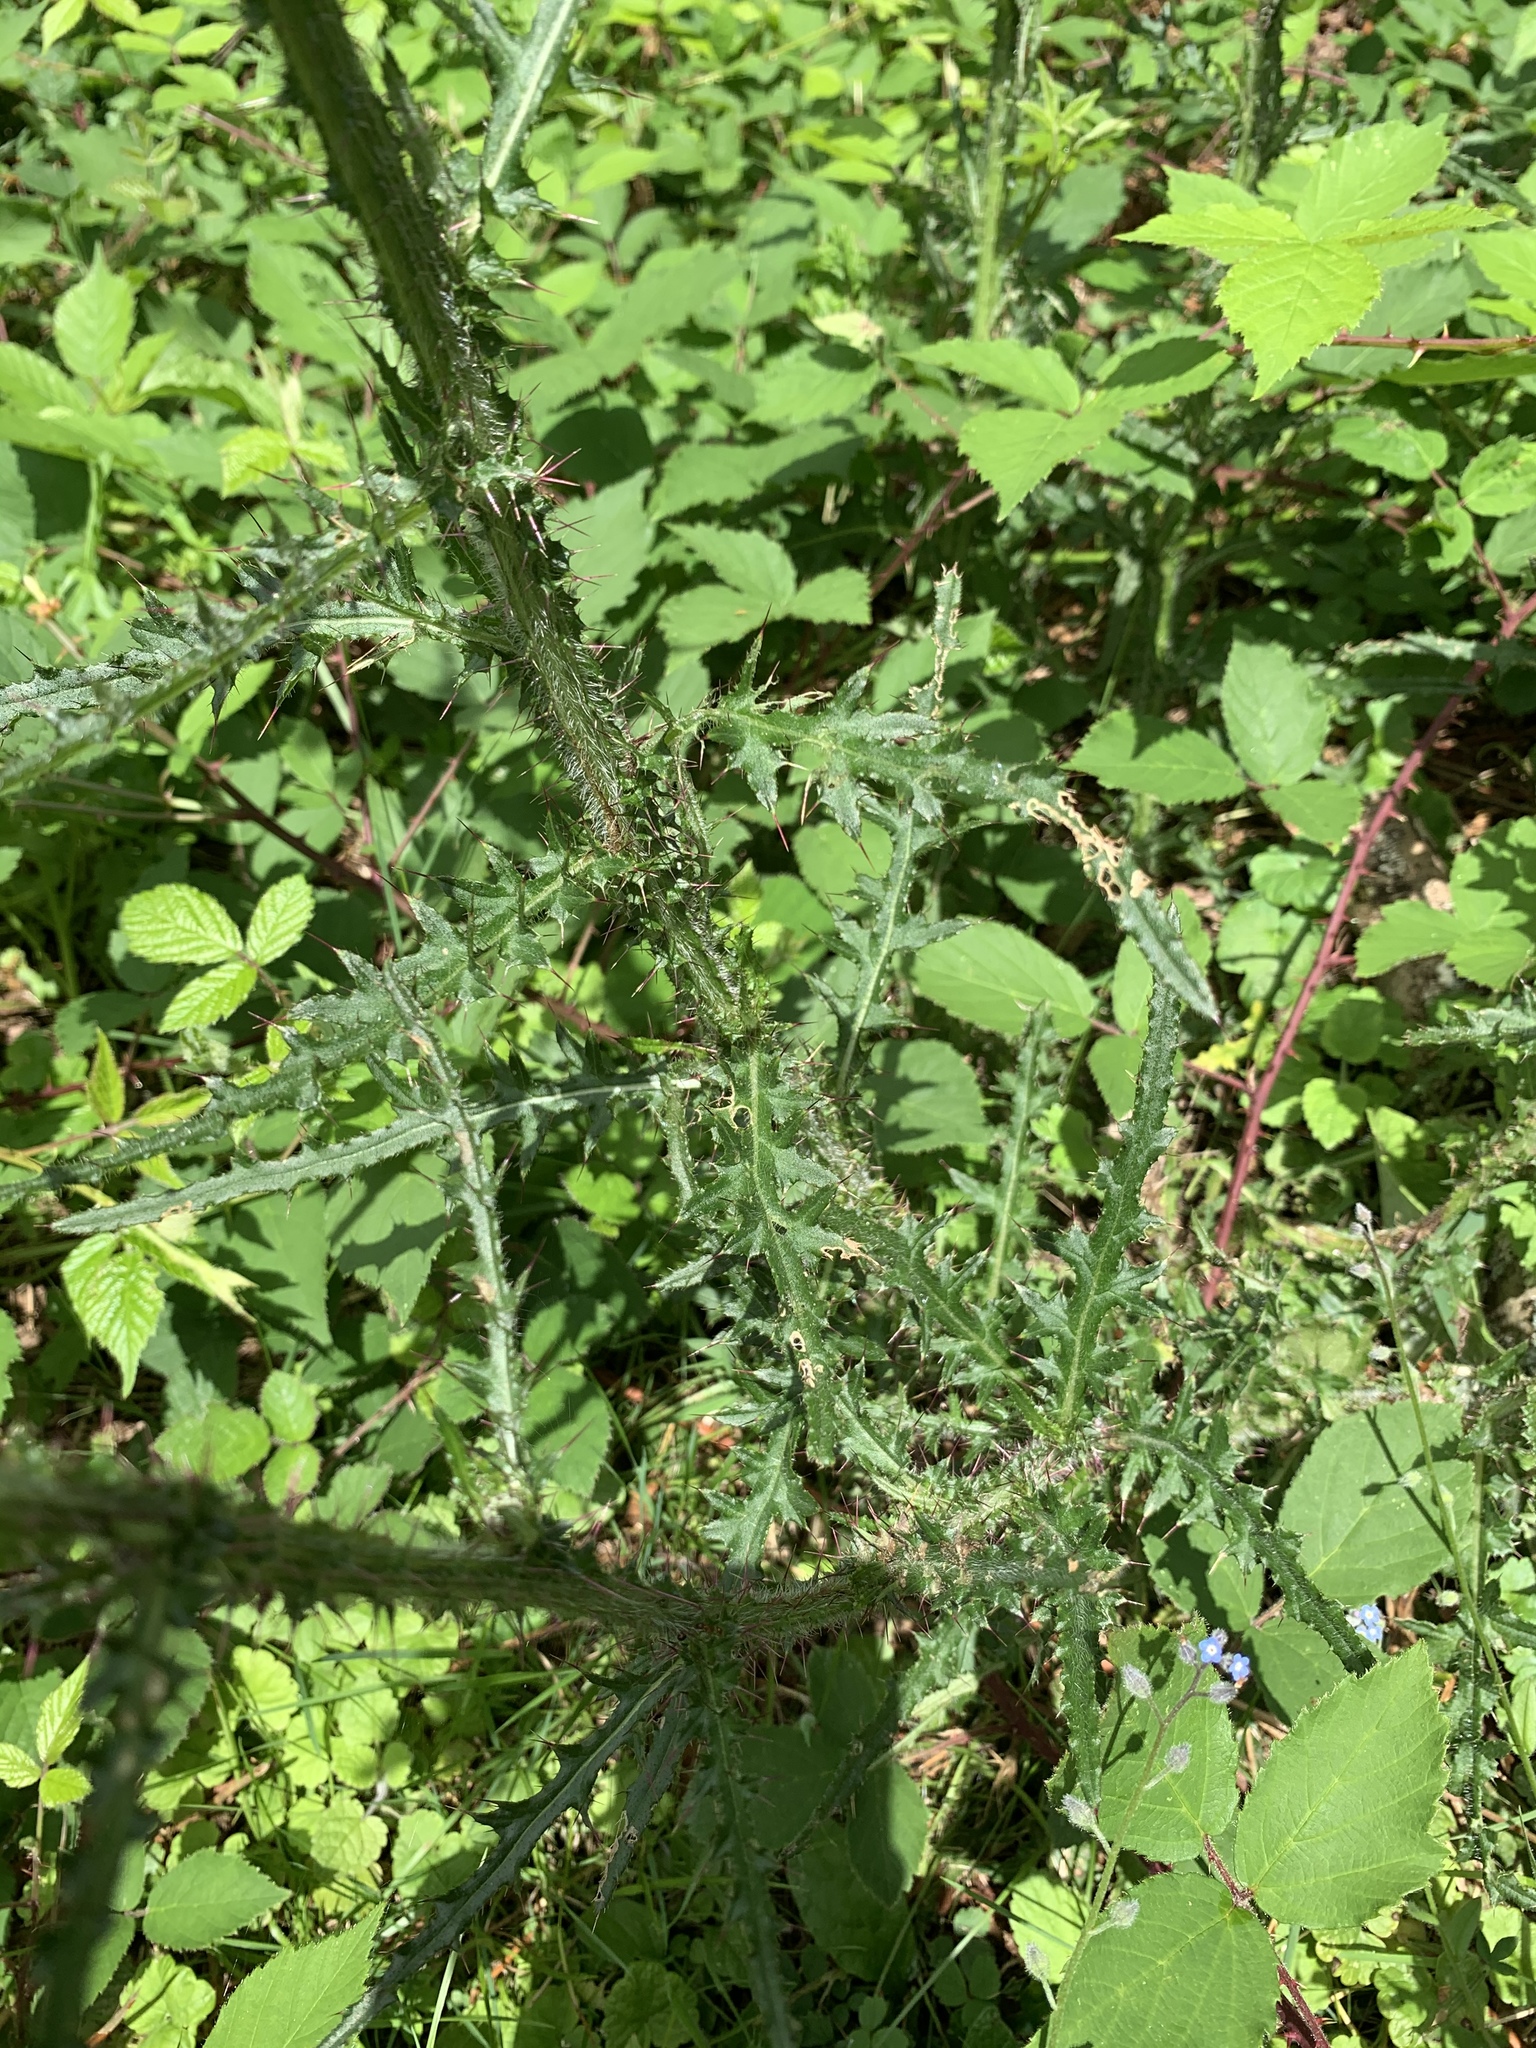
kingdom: Plantae
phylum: Tracheophyta
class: Magnoliopsida
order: Asterales
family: Asteraceae
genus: Cirsium
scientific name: Cirsium palustre
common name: Marsh thistle
